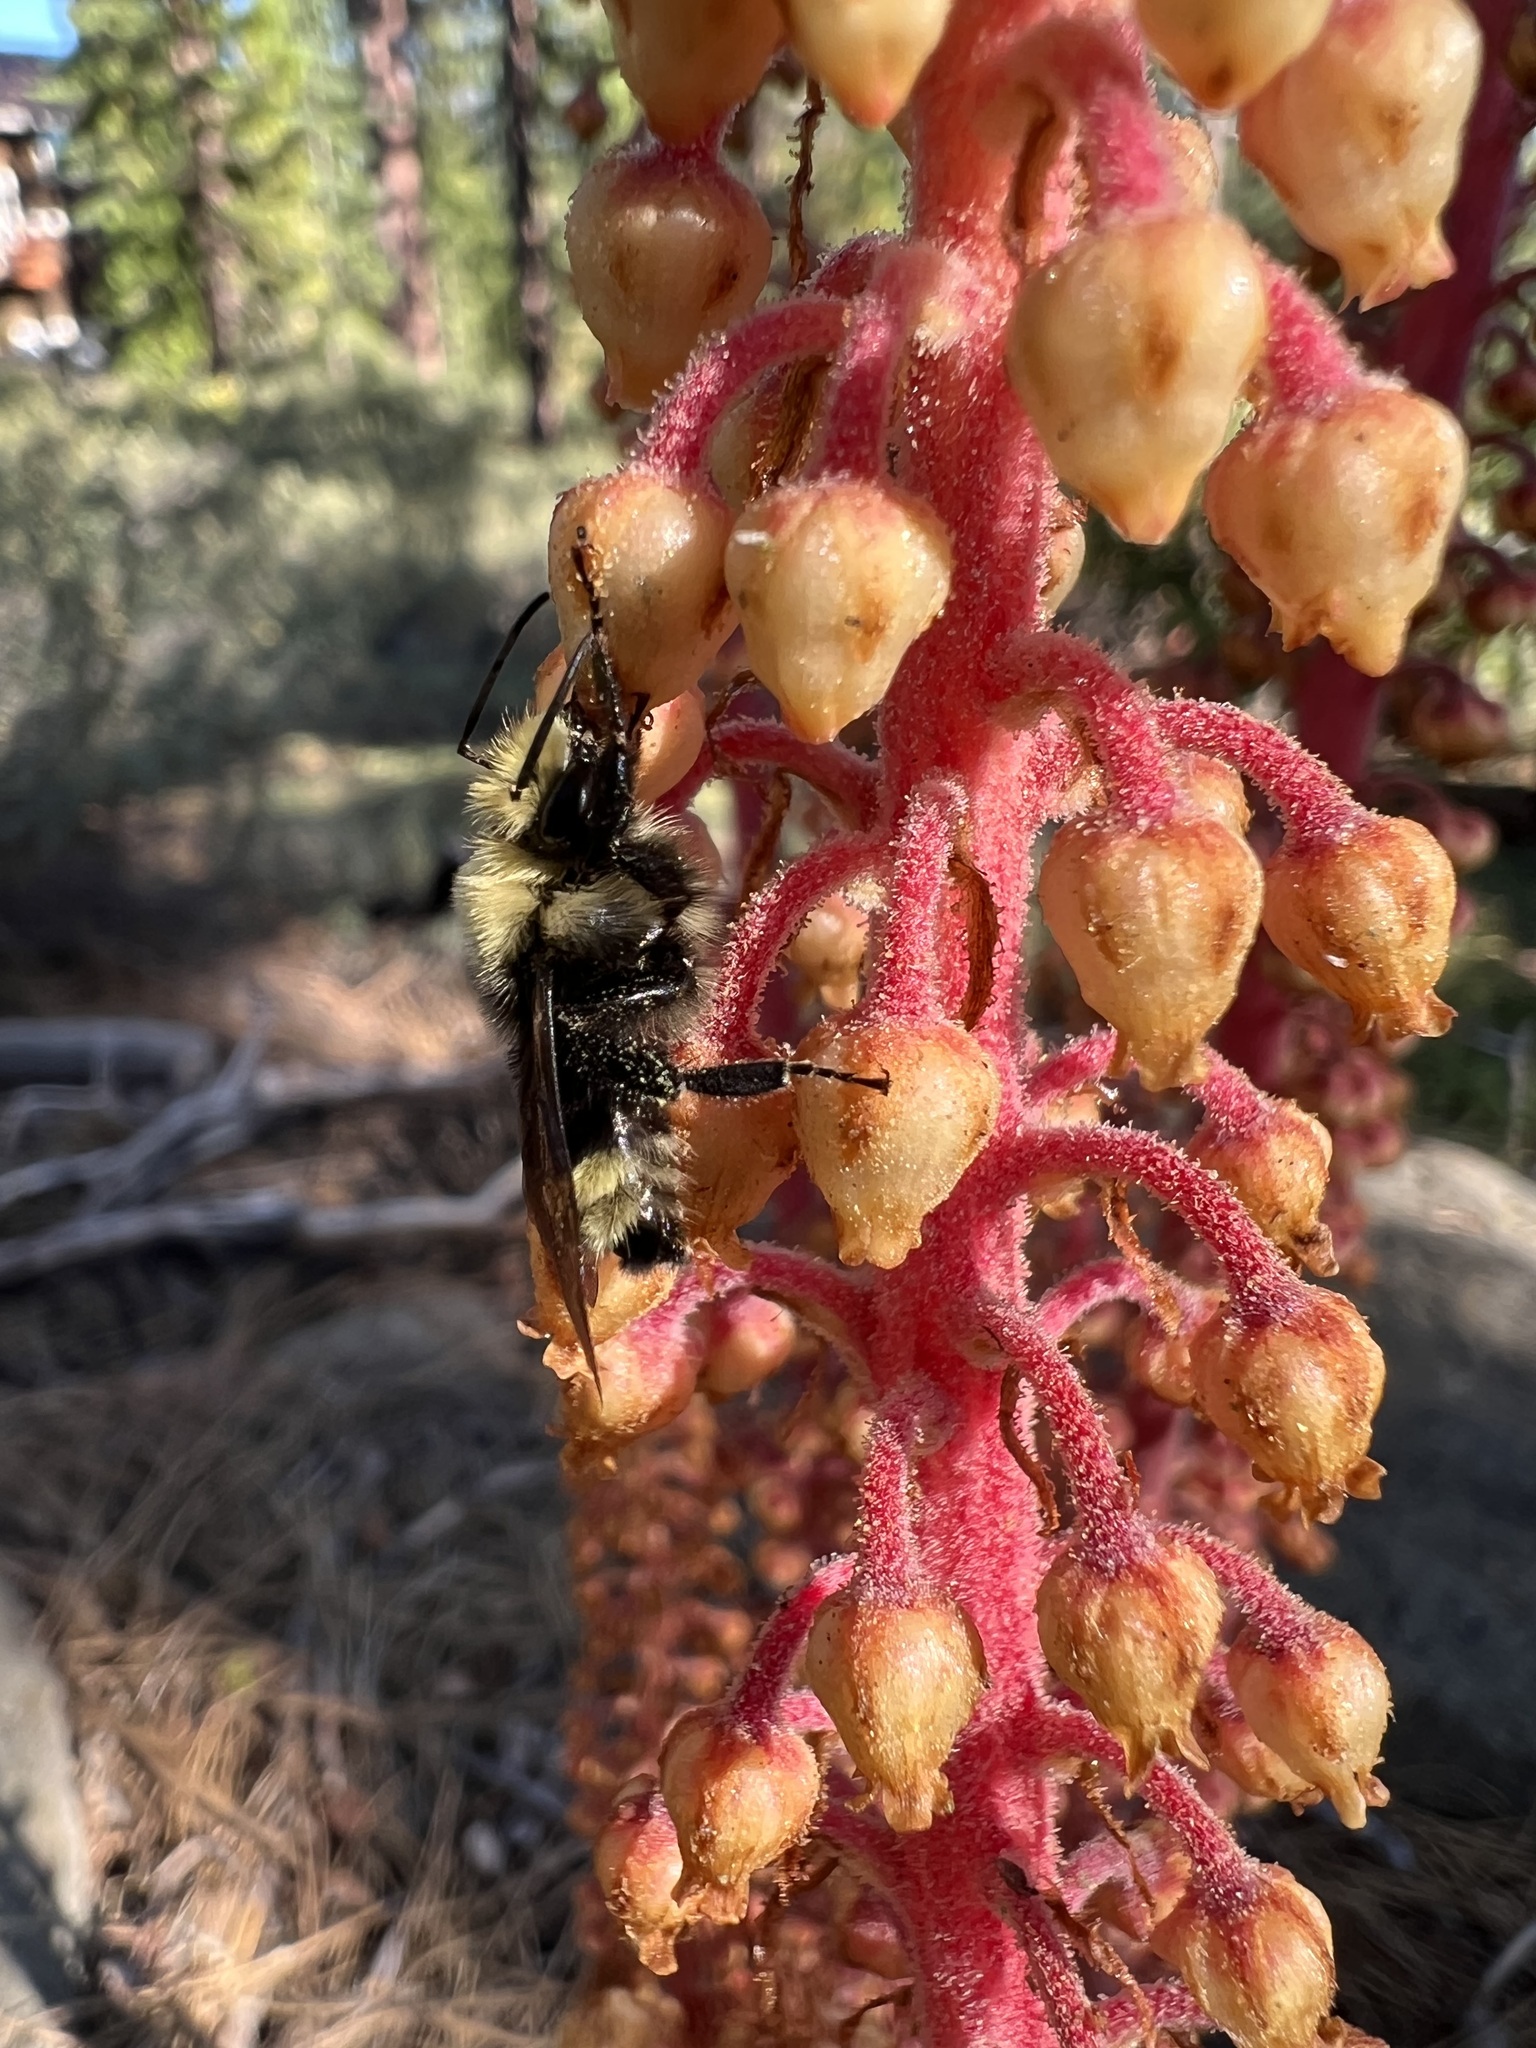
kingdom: Plantae
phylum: Tracheophyta
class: Magnoliopsida
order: Ericales
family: Ericaceae
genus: Pterospora
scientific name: Pterospora andromedea
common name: Giant bird's-nest
